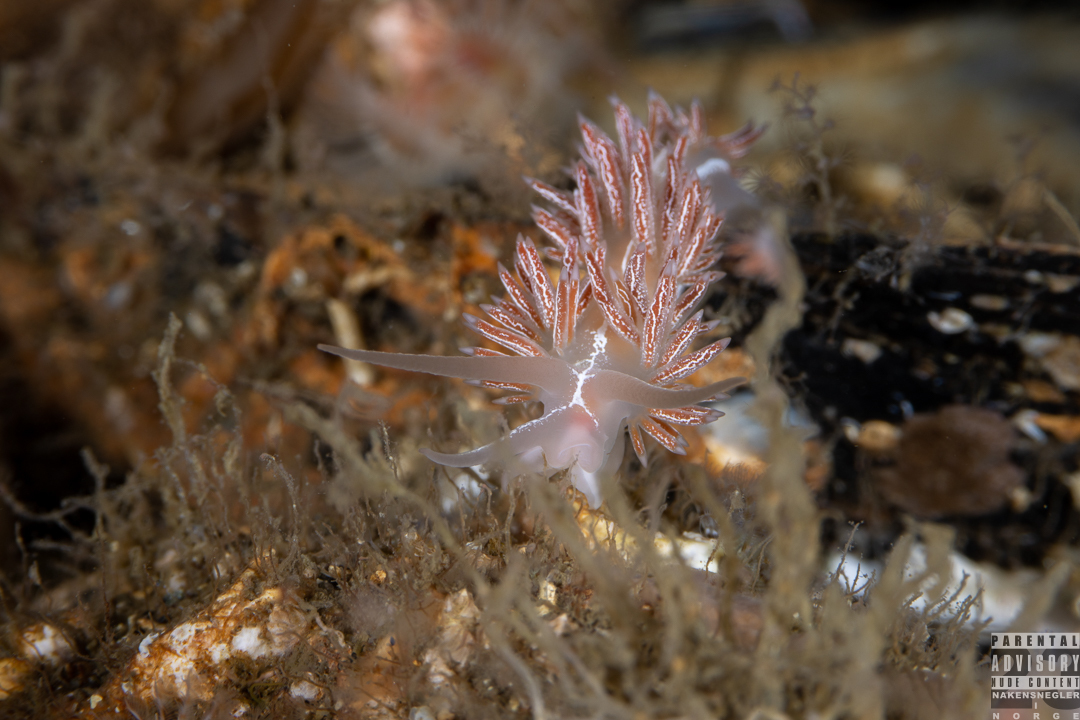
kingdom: Animalia
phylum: Mollusca
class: Gastropoda
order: Nudibranchia
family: Coryphellidae
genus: Coryphella
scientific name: Coryphella chriskaugei
